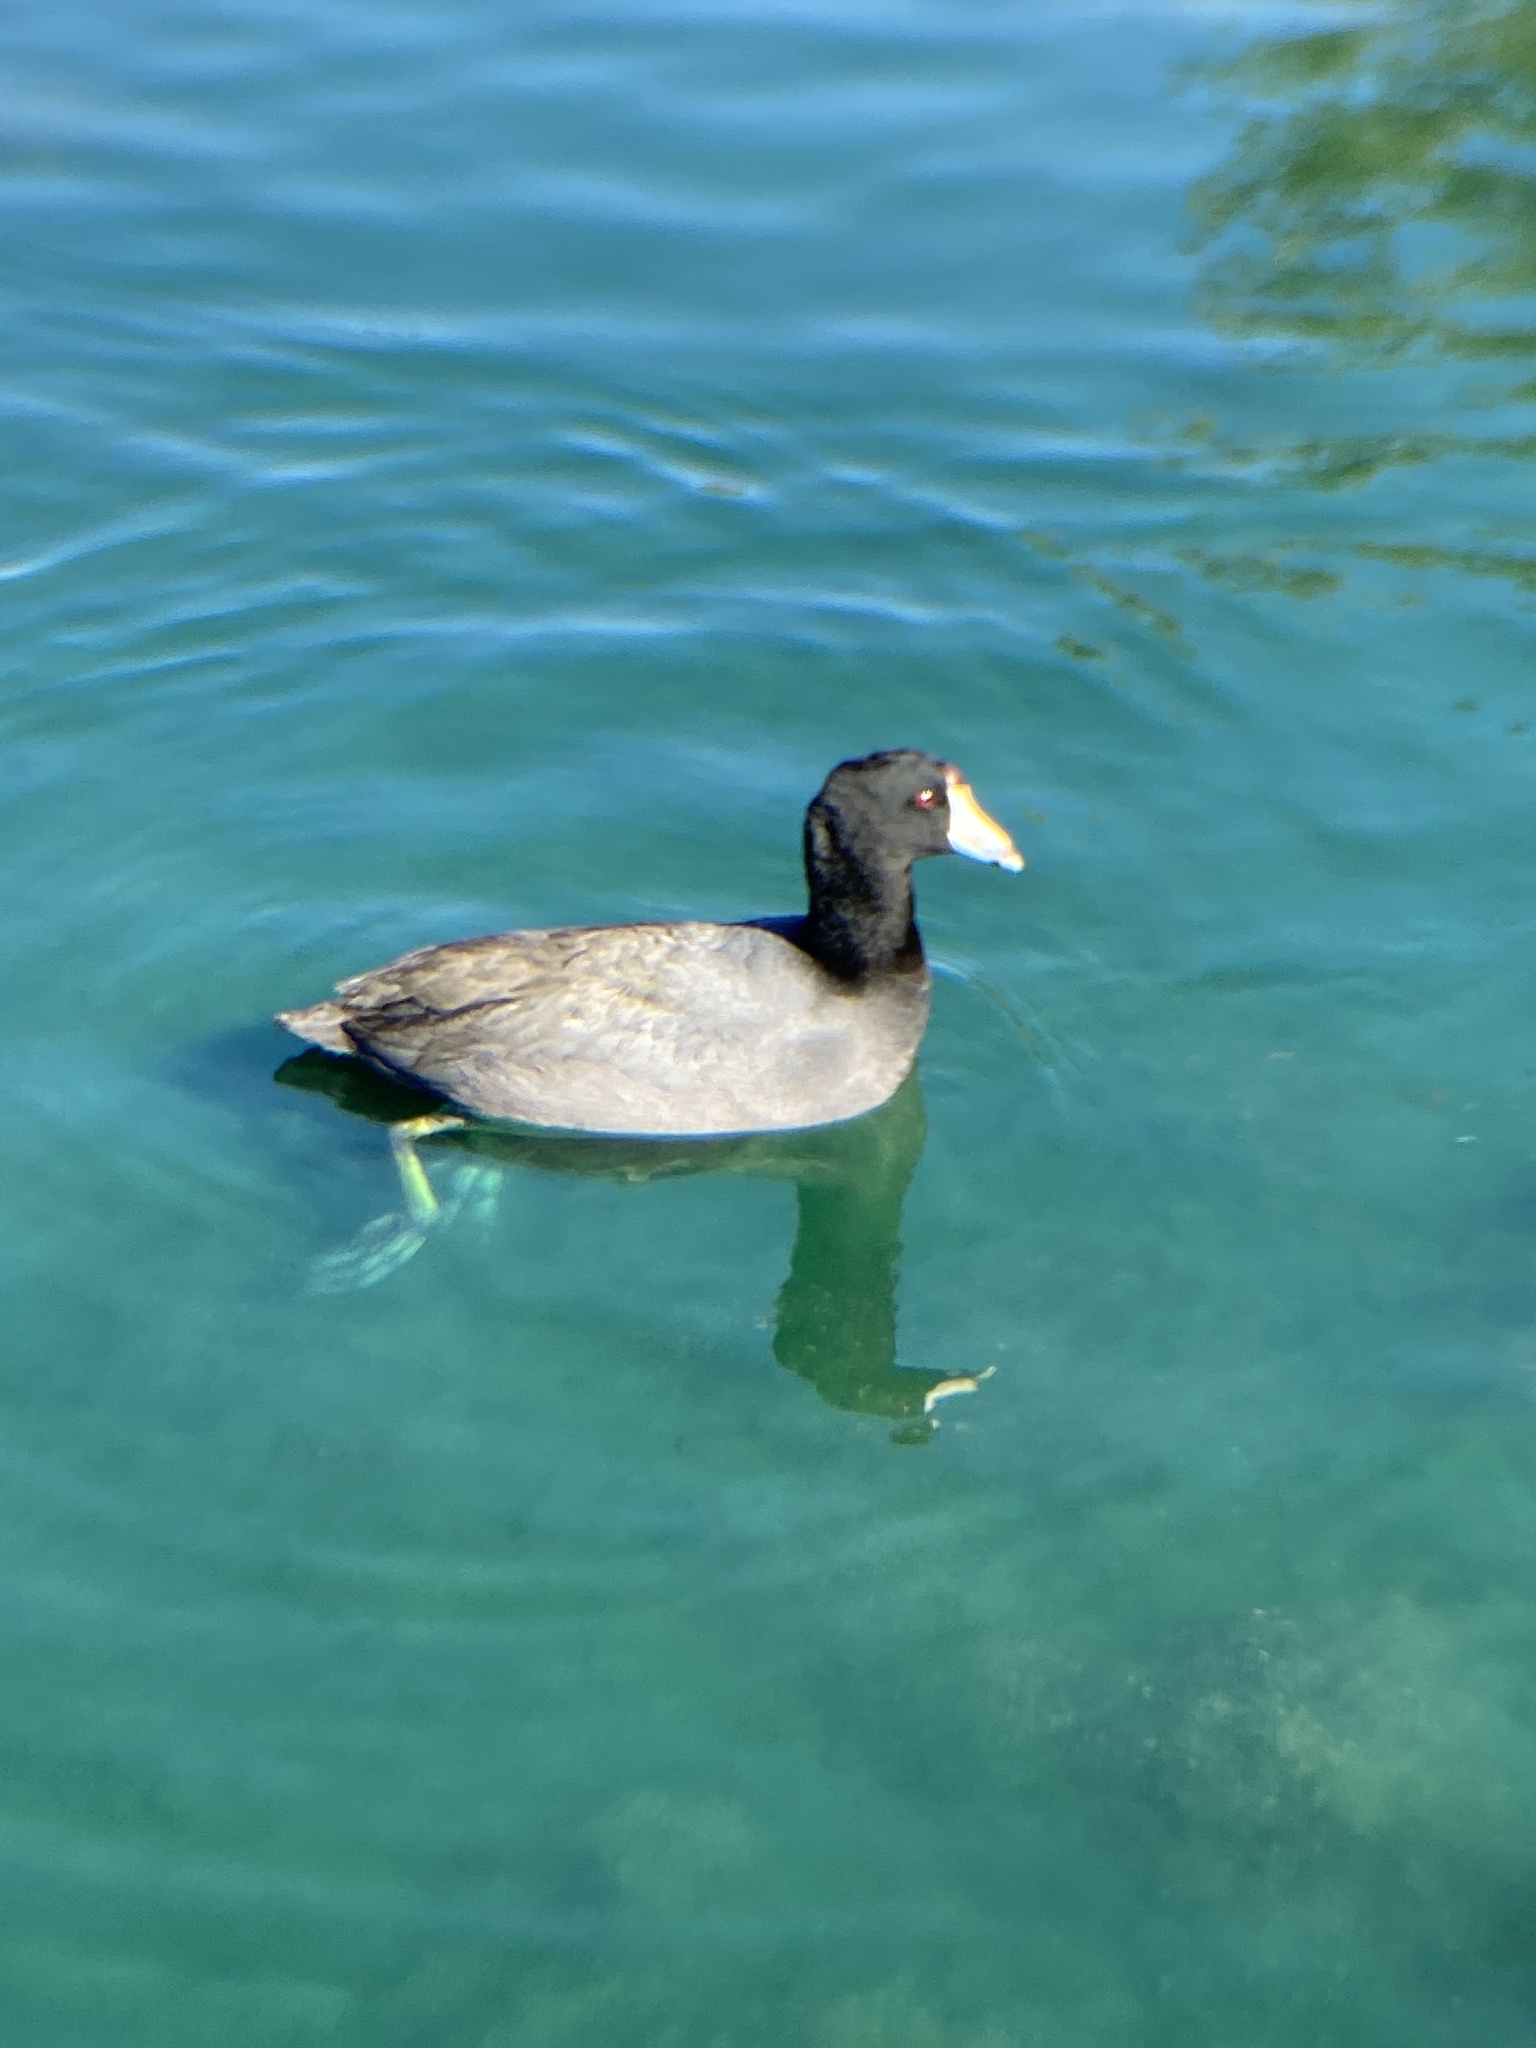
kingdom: Animalia
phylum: Chordata
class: Aves
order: Gruiformes
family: Rallidae
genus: Fulica
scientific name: Fulica americana
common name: American coot
